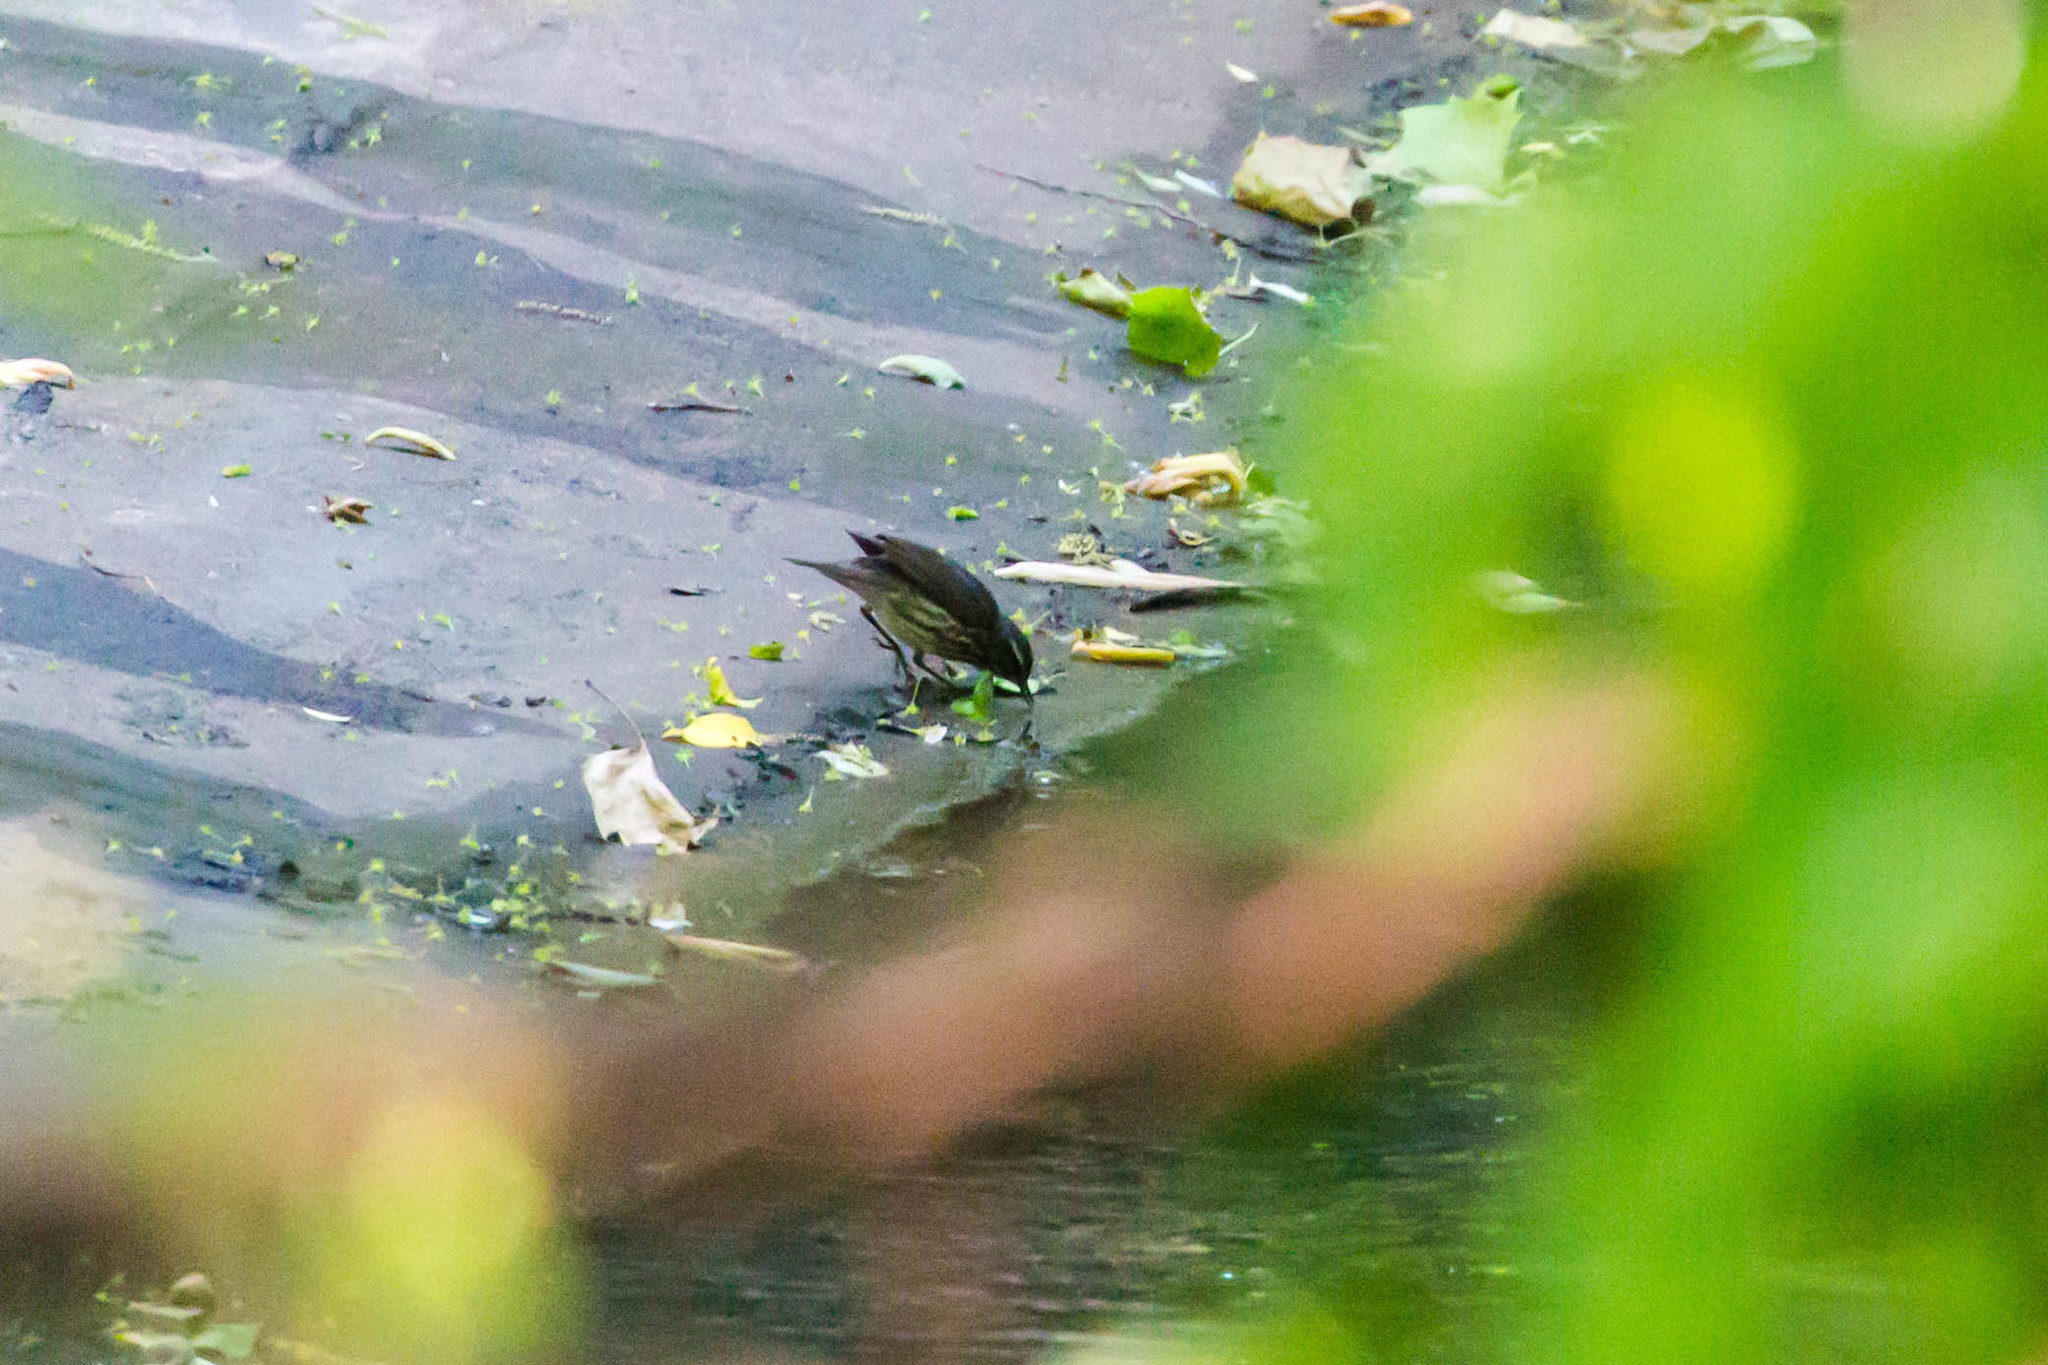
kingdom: Animalia
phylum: Chordata
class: Aves
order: Passeriformes
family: Parulidae
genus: Parkesia
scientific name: Parkesia motacilla
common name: Louisiana waterthrush
